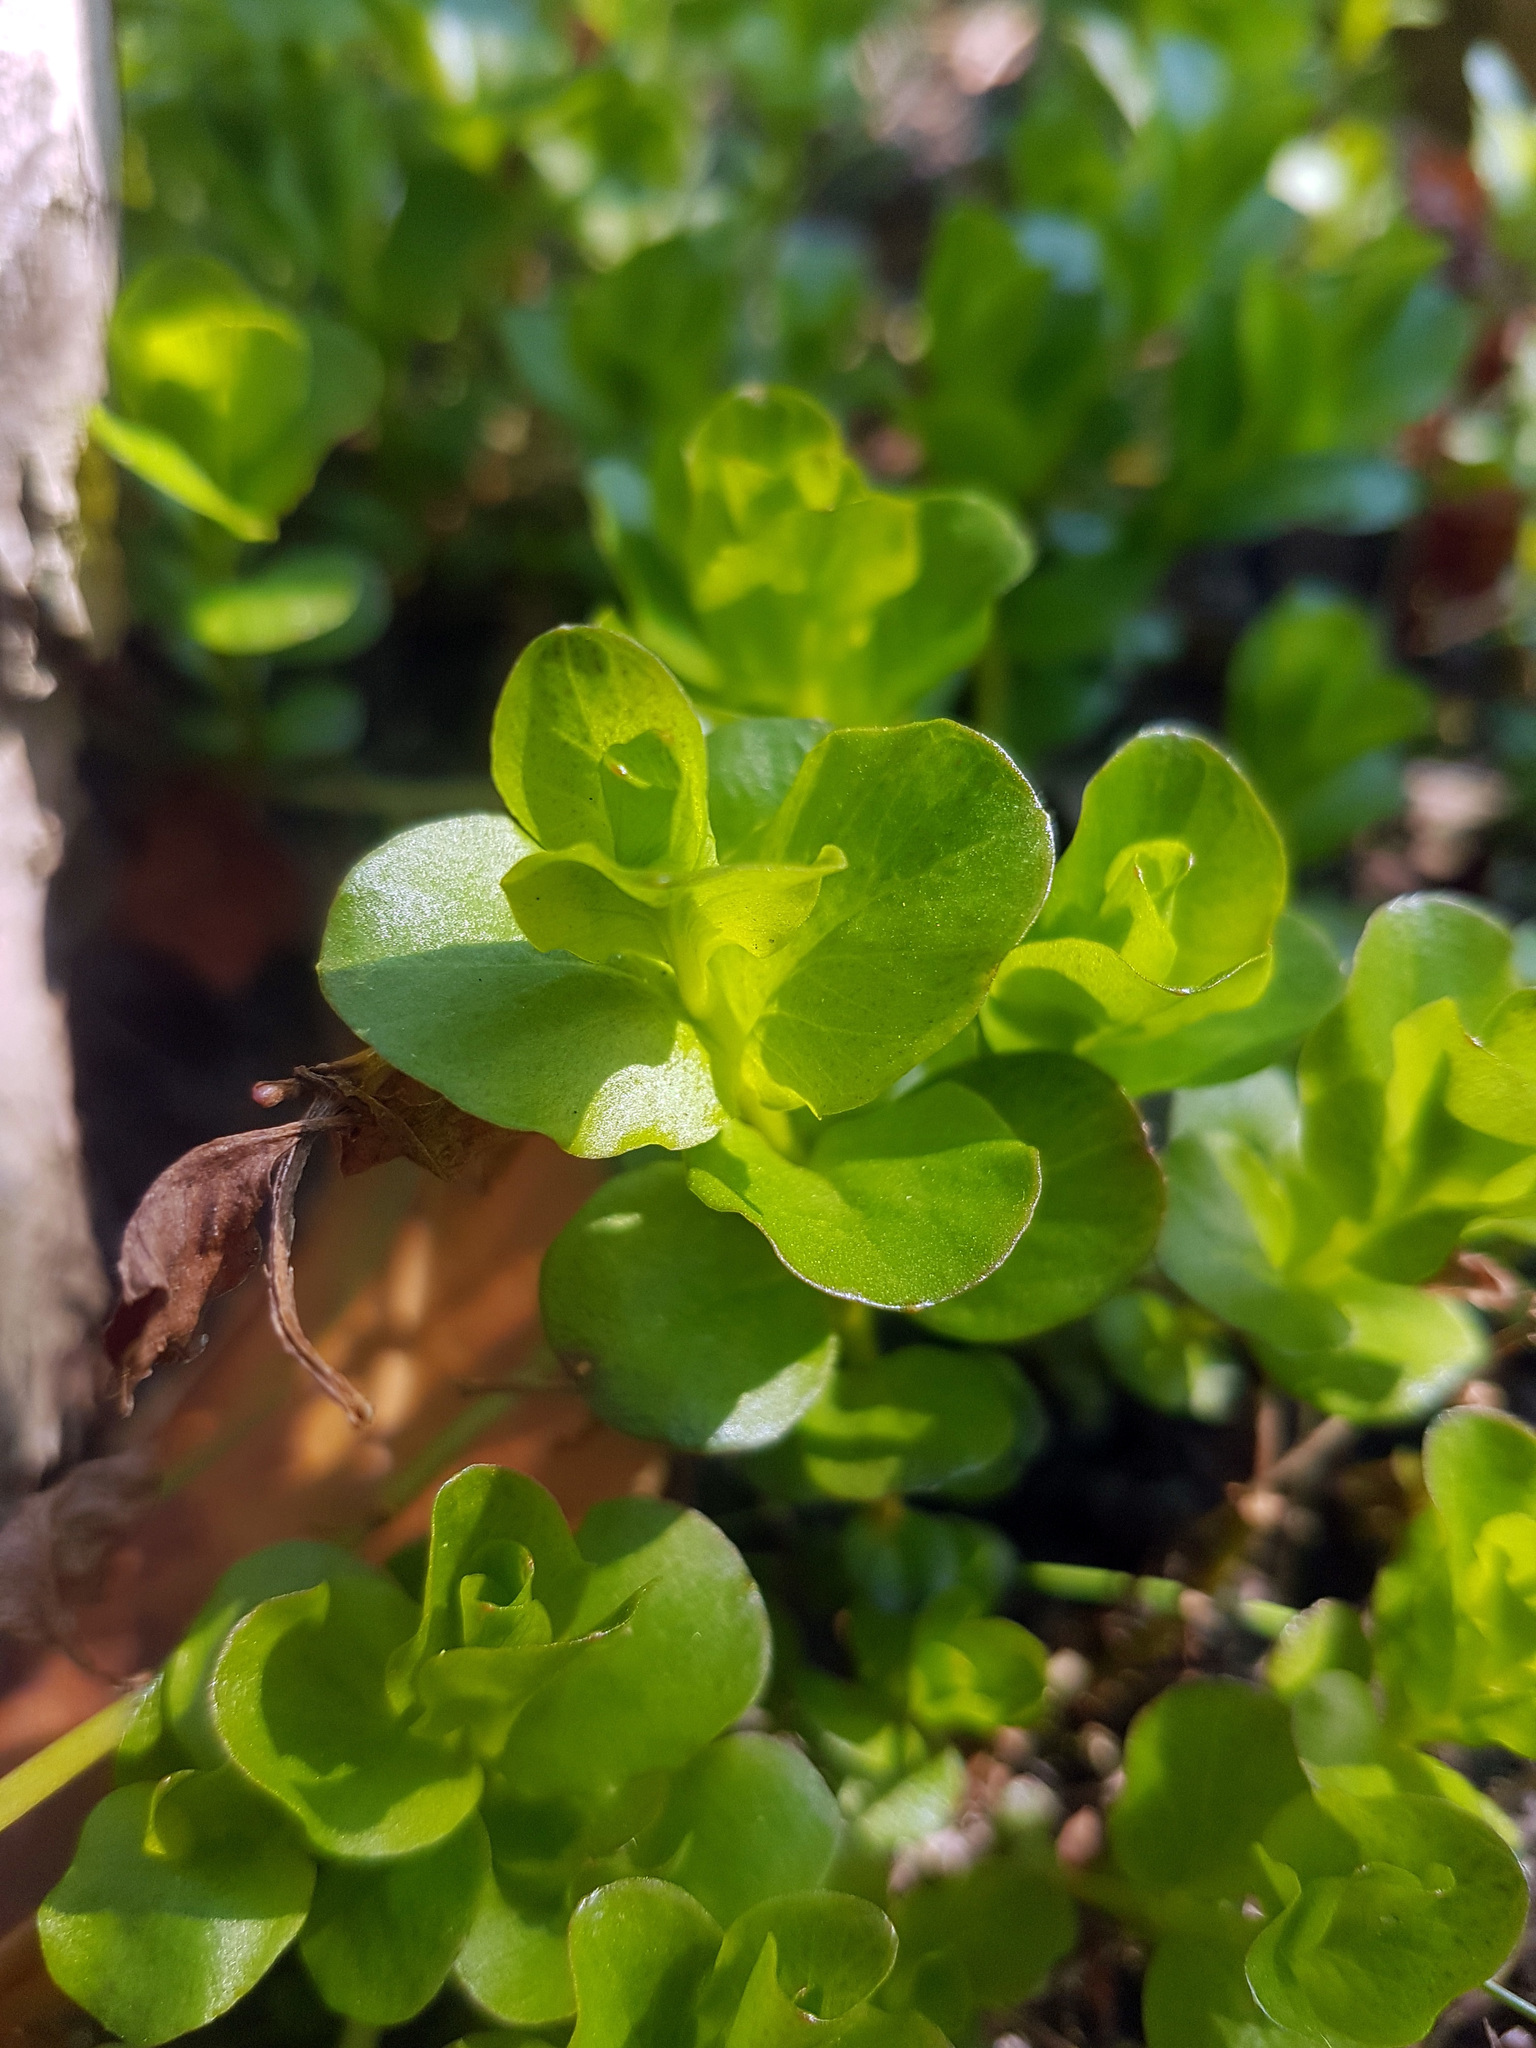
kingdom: Plantae
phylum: Tracheophyta
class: Magnoliopsida
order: Ericales
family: Primulaceae
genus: Lysimachia
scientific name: Lysimachia nummularia
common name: Moneywort
